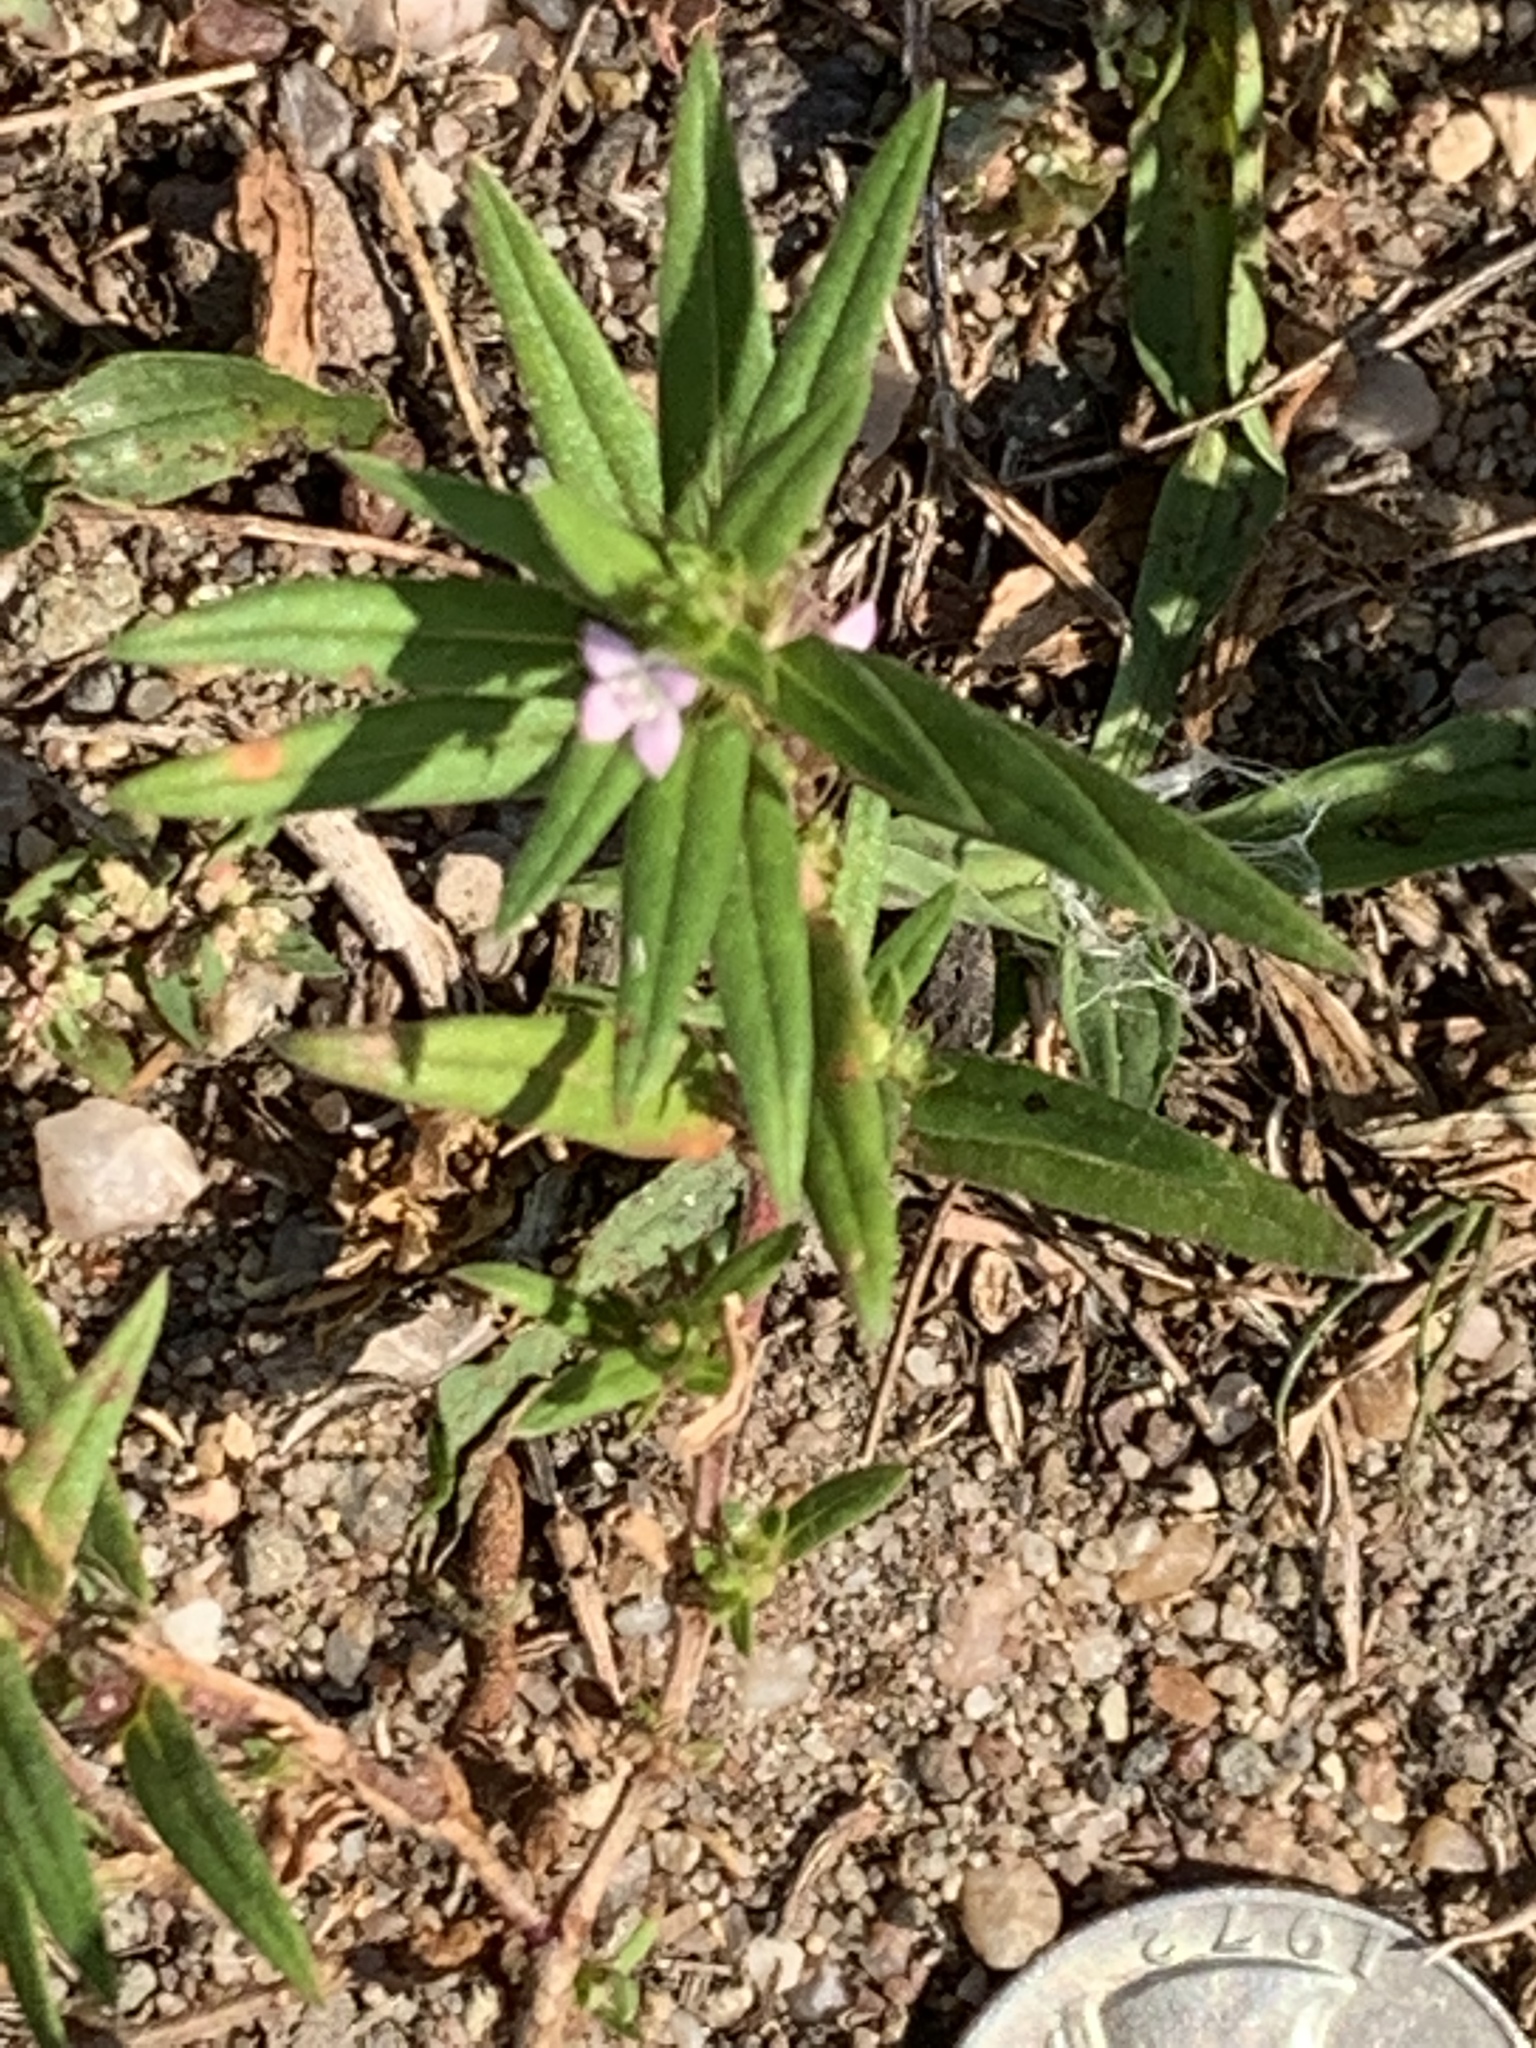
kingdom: Plantae
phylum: Tracheophyta
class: Magnoliopsida
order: Gentianales
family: Rubiaceae
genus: Hexasepalum
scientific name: Hexasepalum teres
